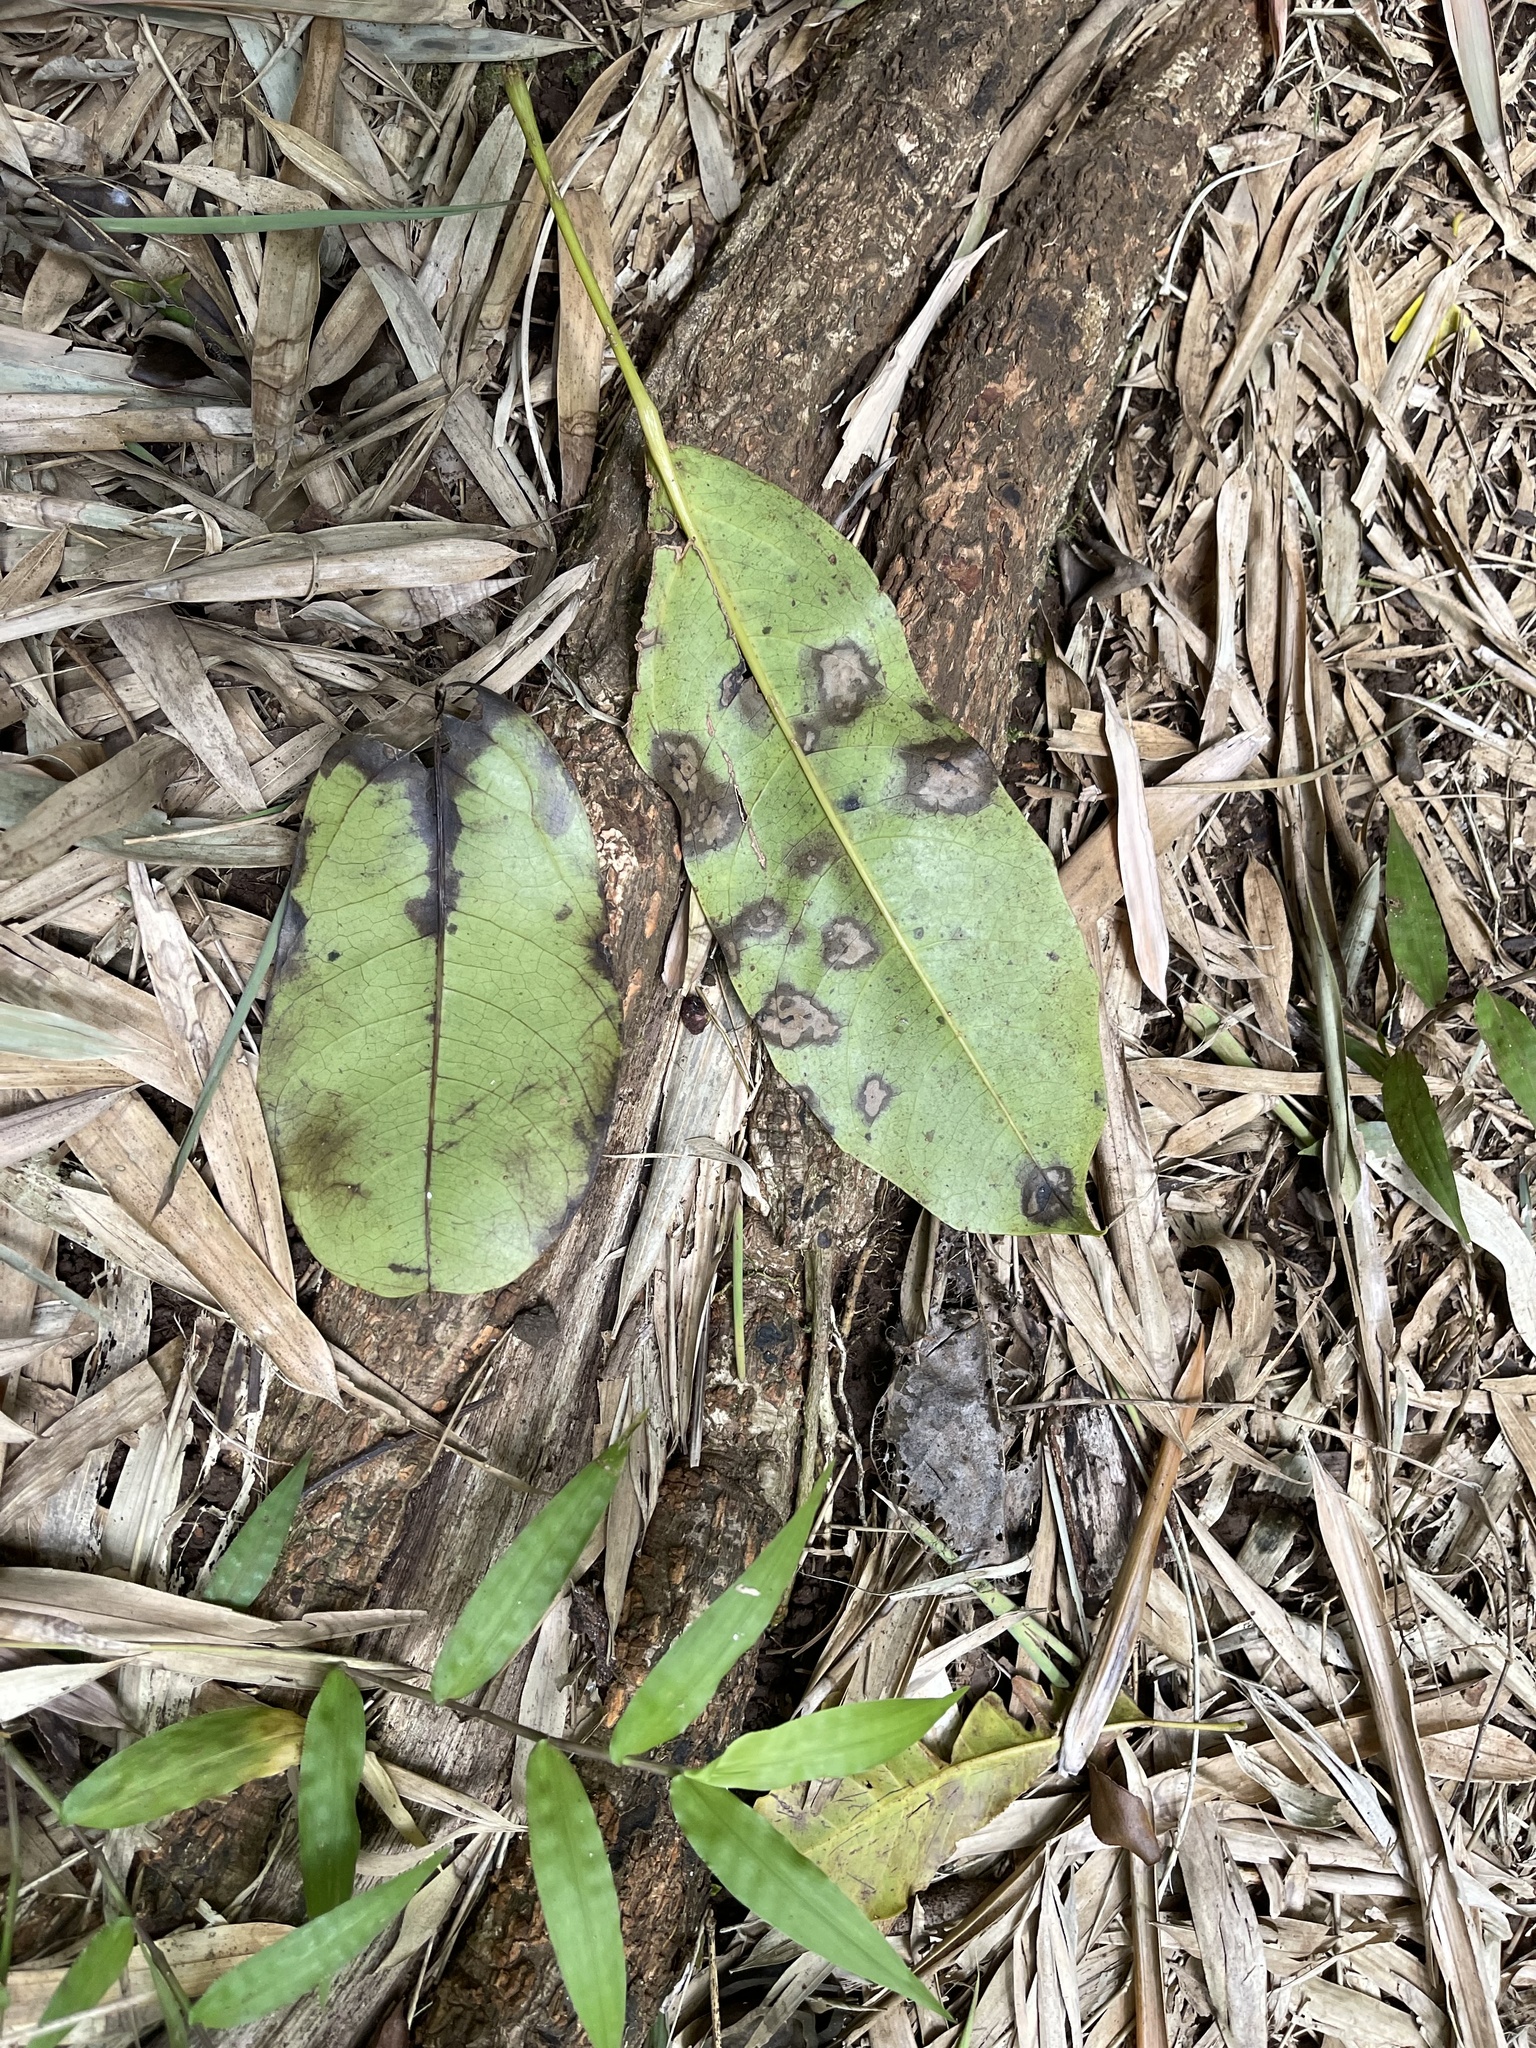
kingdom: Plantae
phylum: Tracheophyta
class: Magnoliopsida
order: Sapindales
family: Rutaceae
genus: Flindersia
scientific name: Flindersia brayleyana
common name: Queensland maple
